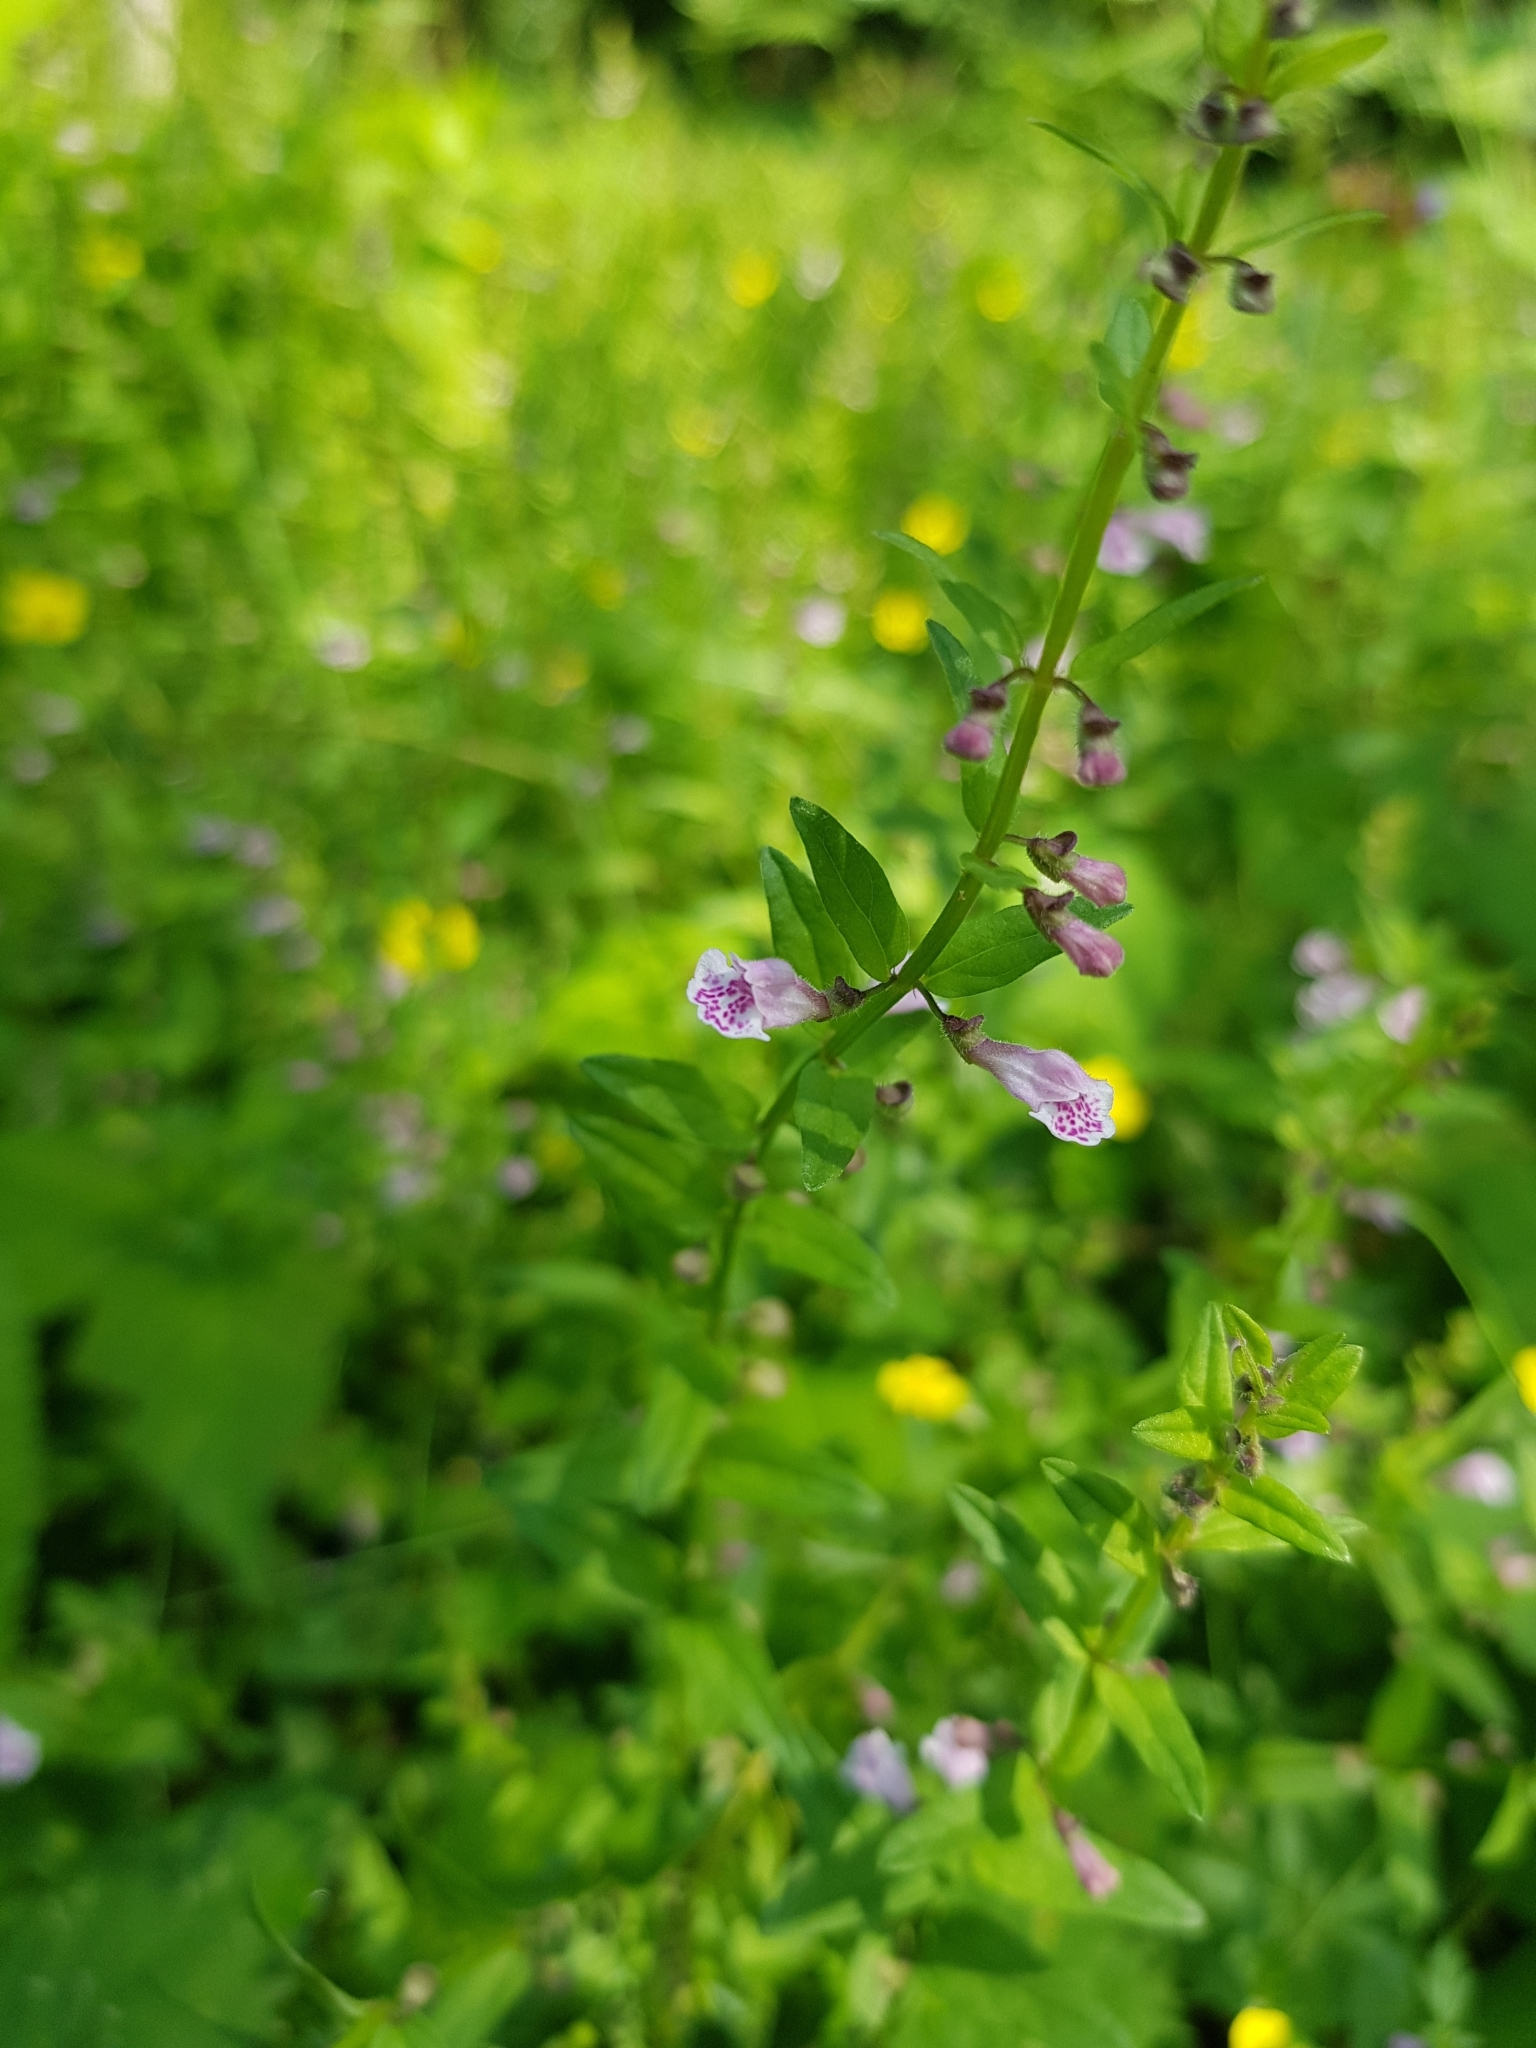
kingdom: Plantae
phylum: Tracheophyta
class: Magnoliopsida
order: Lamiales
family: Lamiaceae
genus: Scutellaria
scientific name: Scutellaria minor
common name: Lesser skullcap
